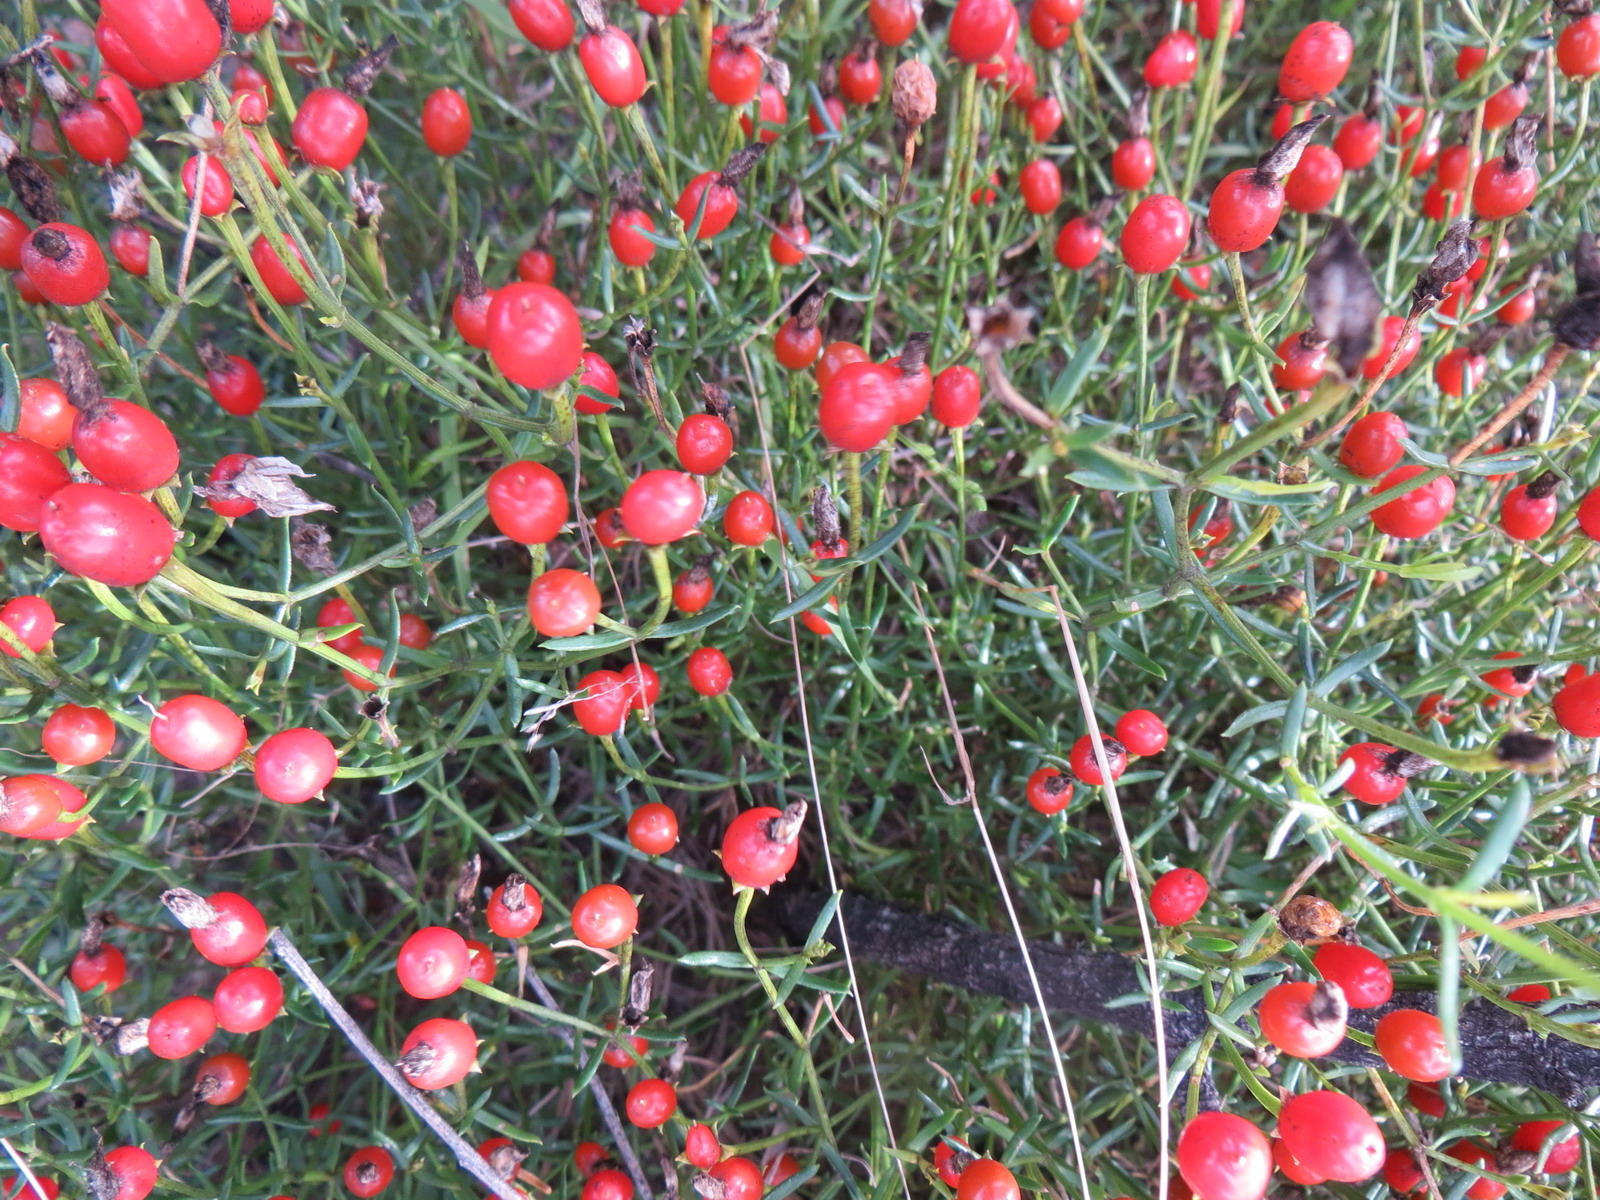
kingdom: Plantae
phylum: Tracheophyta
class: Magnoliopsida
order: Gentianales
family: Gentianaceae
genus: Chironia
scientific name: Chironia baccifera
